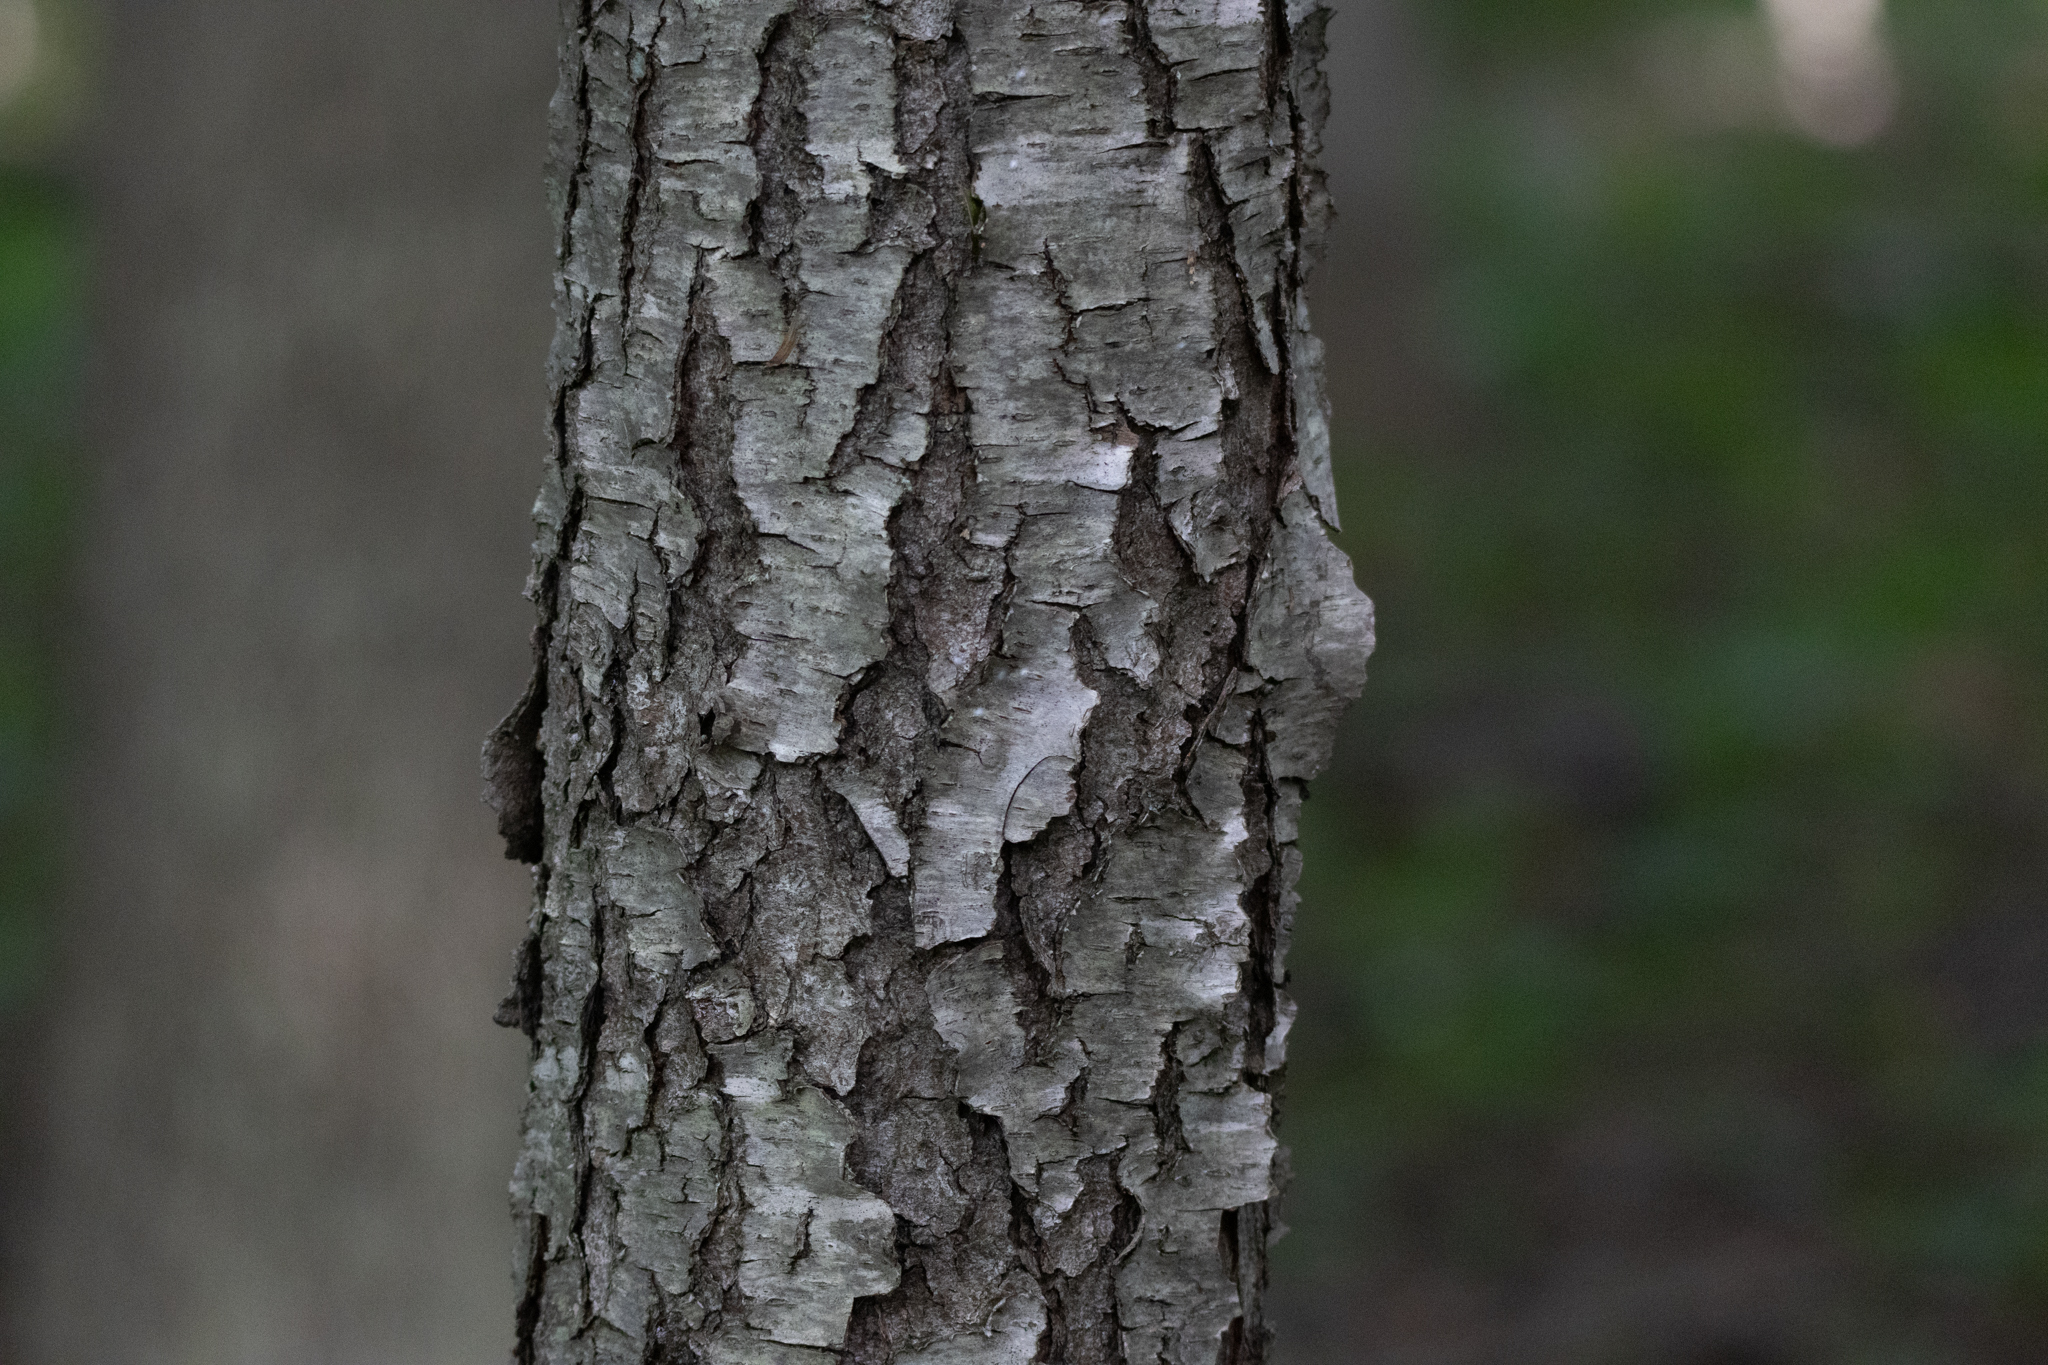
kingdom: Plantae
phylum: Tracheophyta
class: Magnoliopsida
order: Rosales
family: Rosaceae
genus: Prunus
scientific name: Prunus serotina
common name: Black cherry
